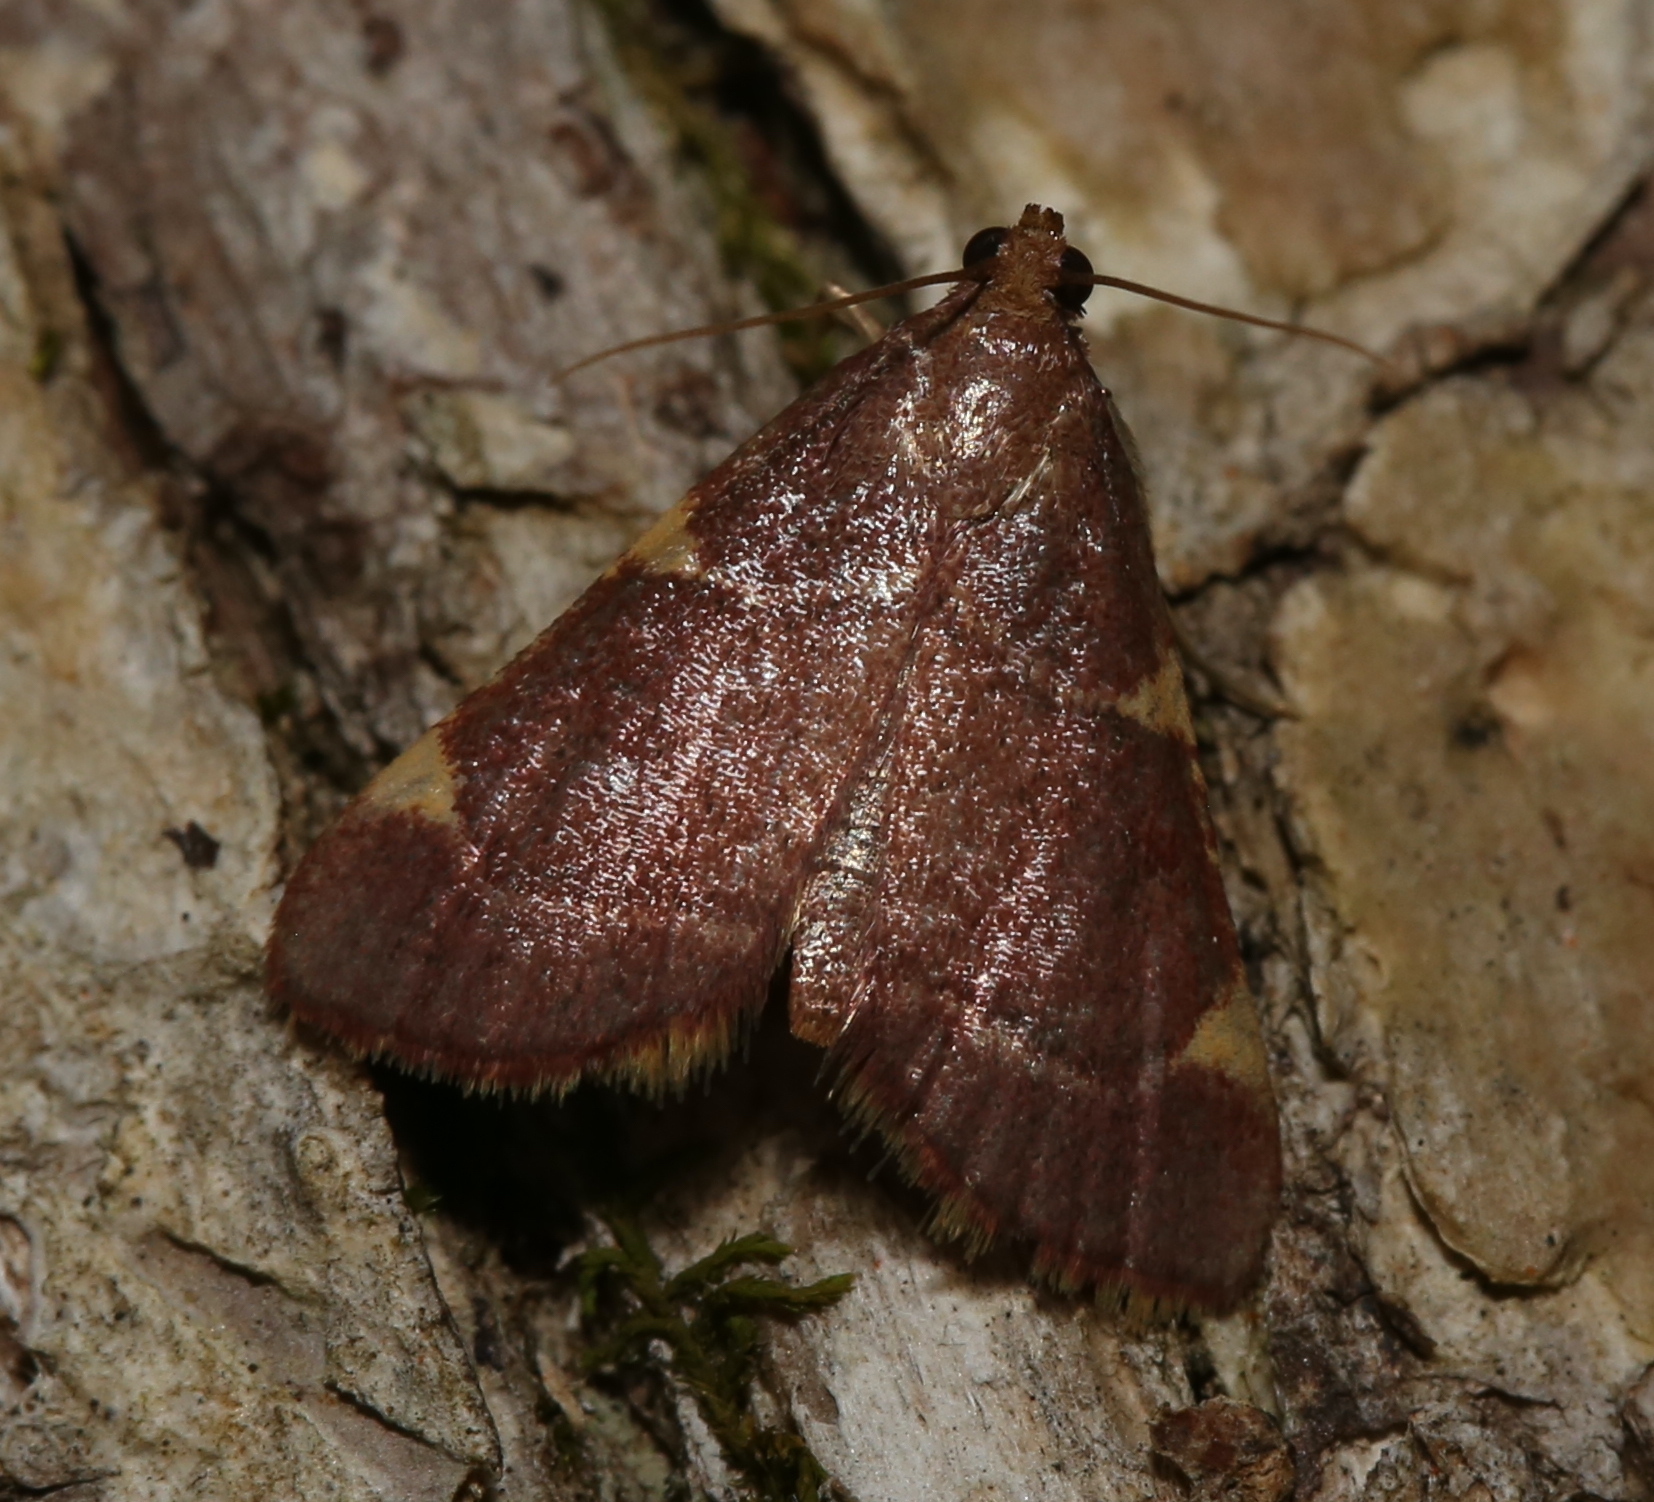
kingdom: Animalia
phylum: Arthropoda
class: Insecta
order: Lepidoptera
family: Pyralidae
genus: Hypsopygia
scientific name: Hypsopygia olinalis
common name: Yellow-fringed dolichomia moth
